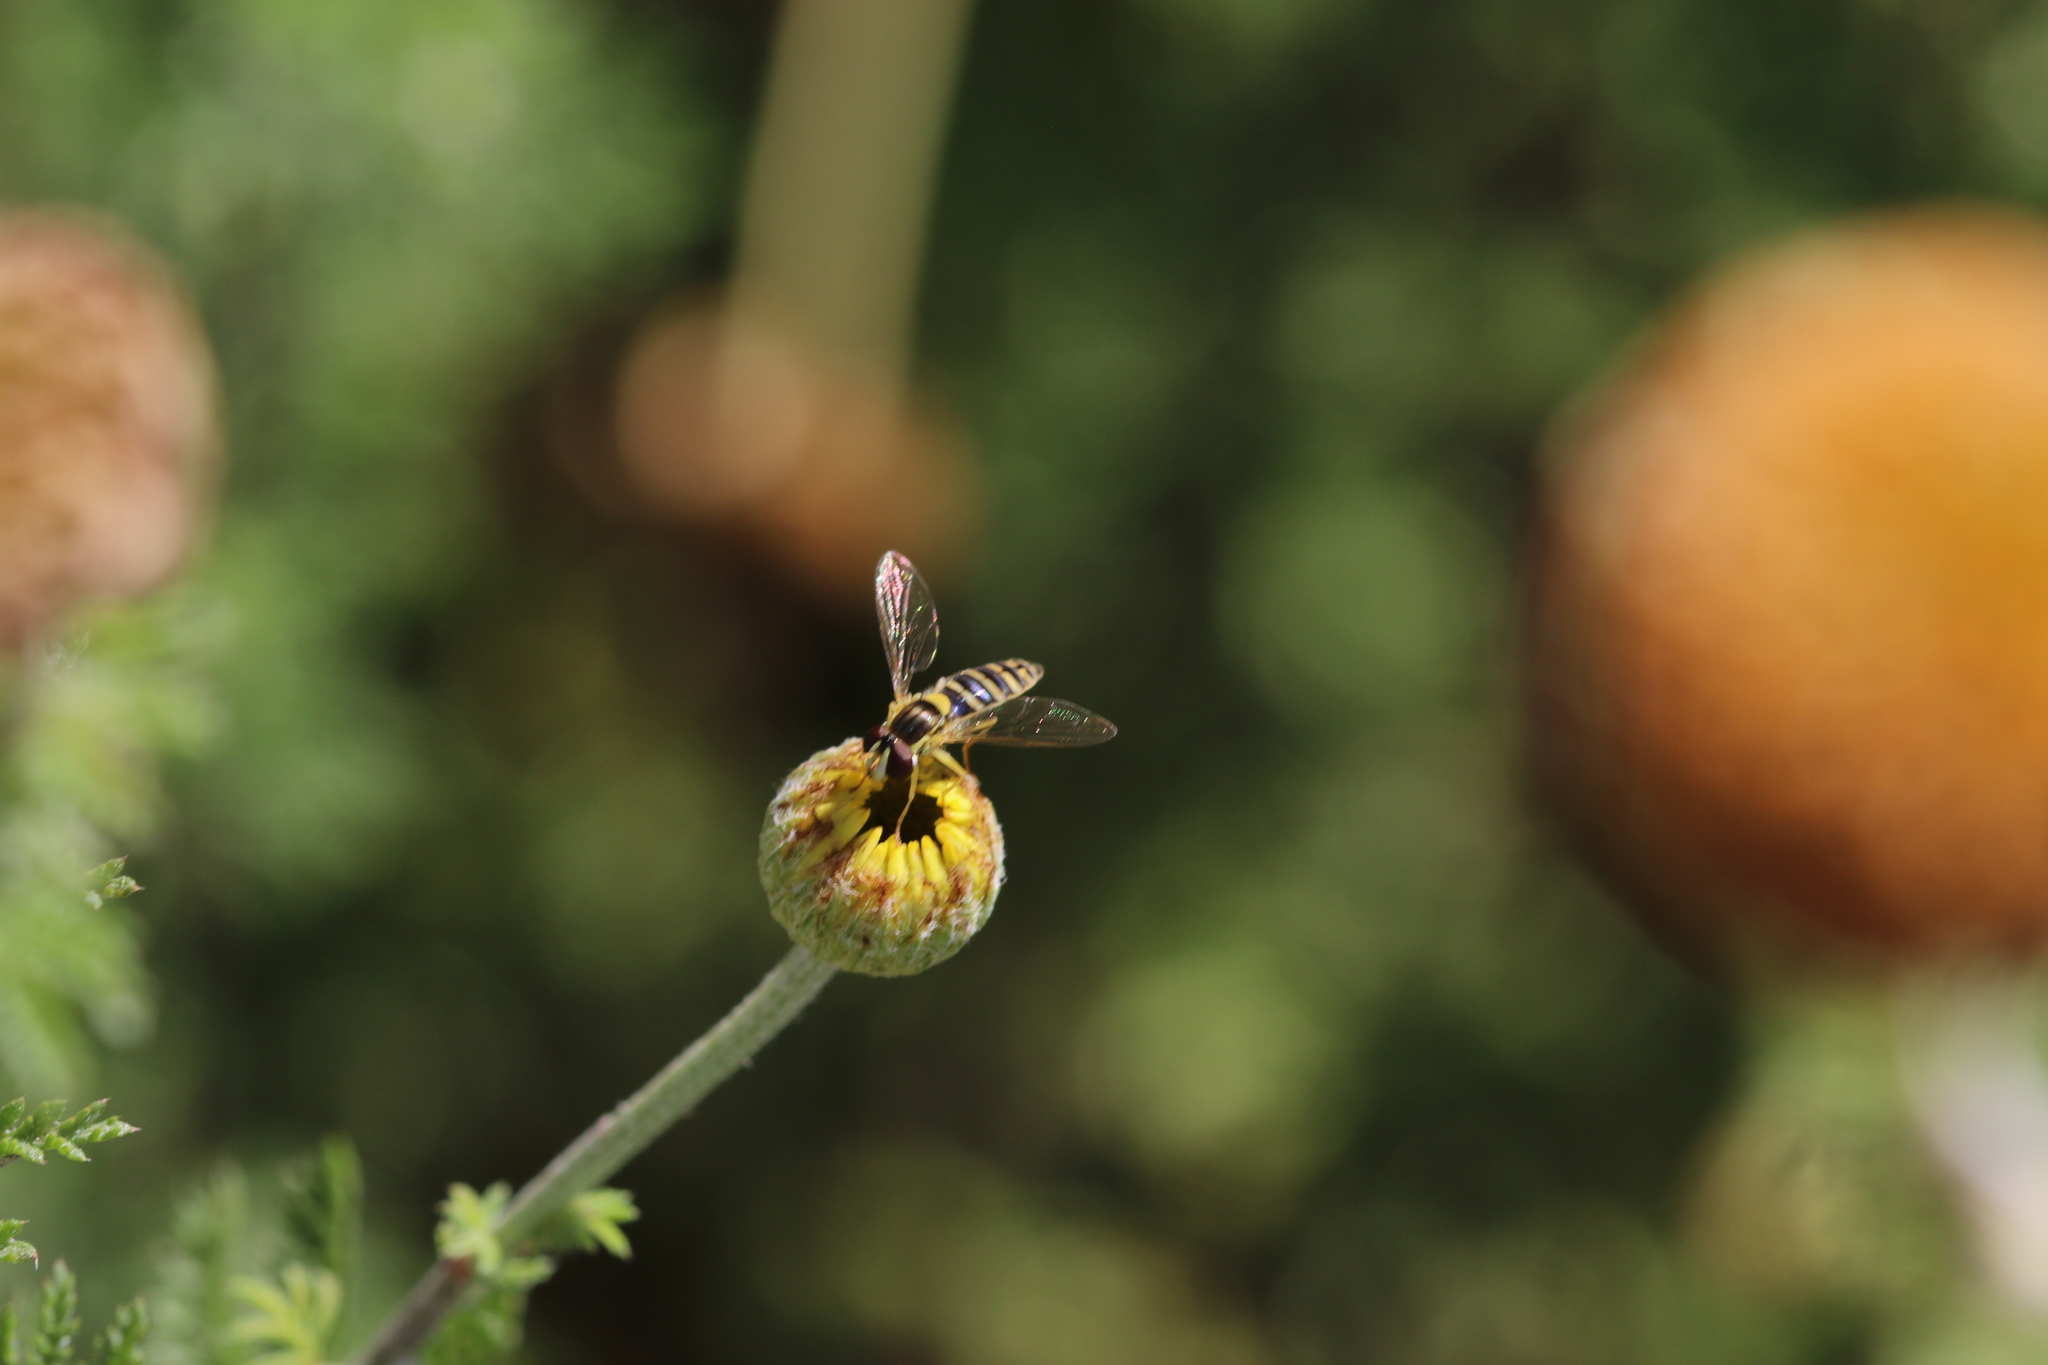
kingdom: Animalia
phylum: Arthropoda
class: Insecta
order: Diptera
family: Syrphidae
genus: Sphaerophoria
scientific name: Sphaerophoria
